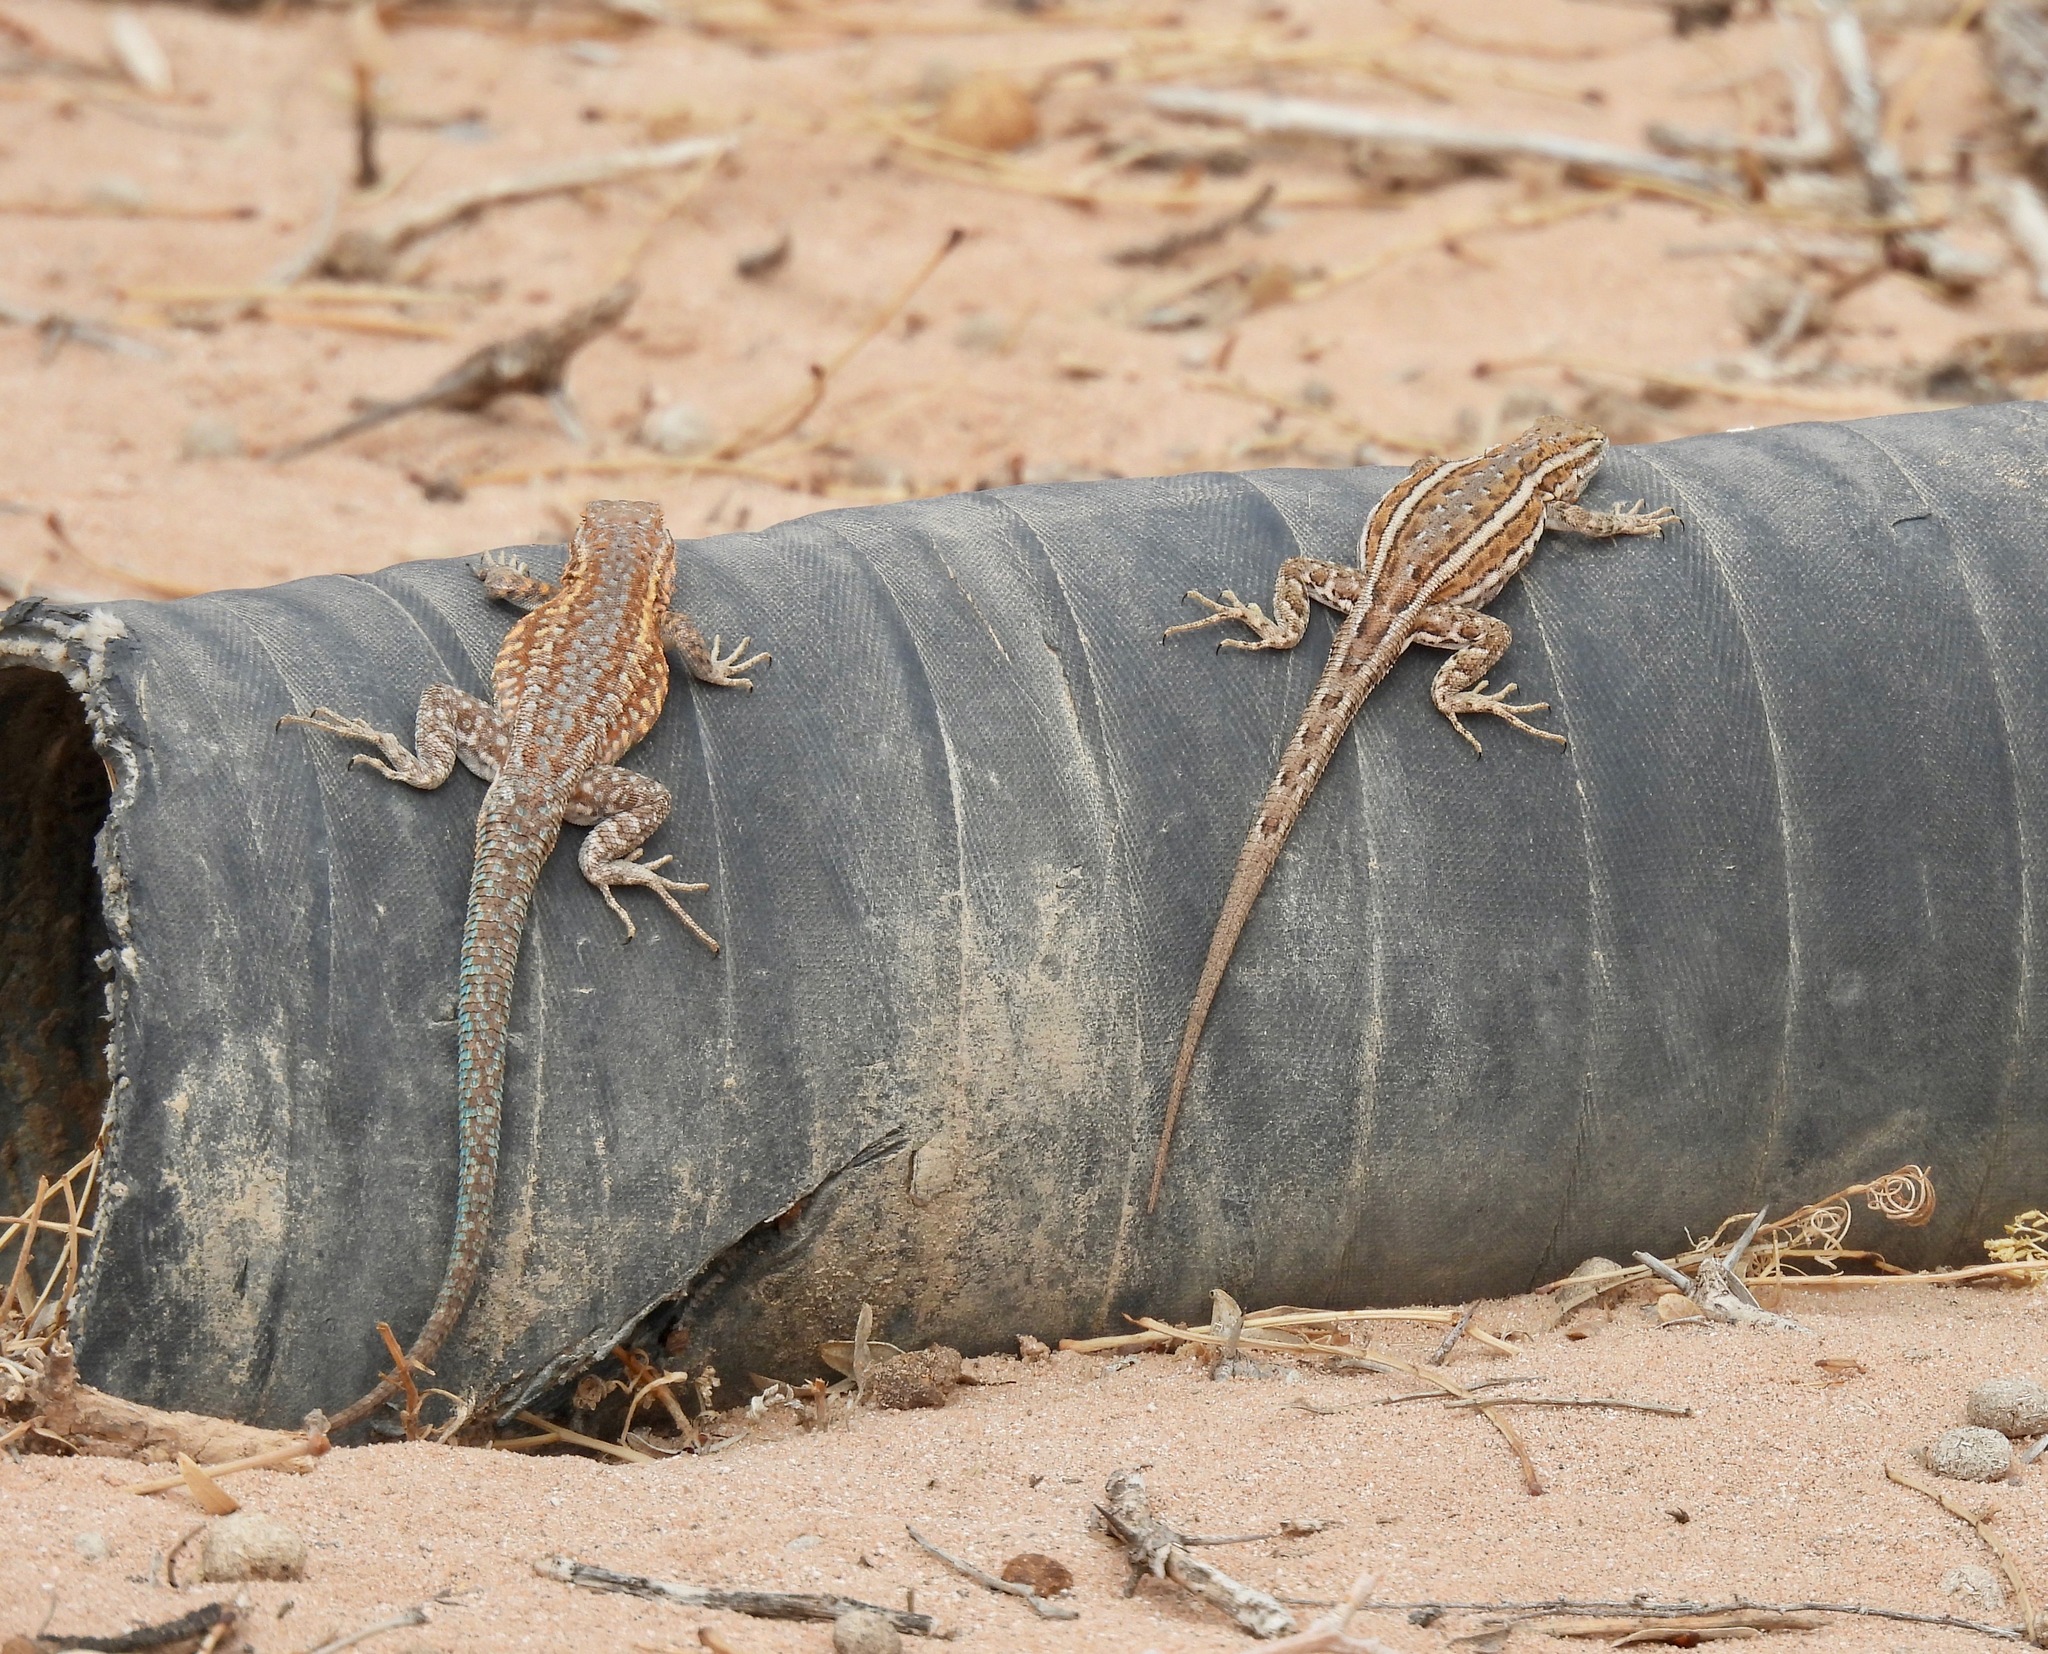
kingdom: Animalia
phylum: Chordata
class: Squamata
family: Phrynosomatidae
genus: Uta
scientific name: Uta stansburiana
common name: Side-blotched lizard
